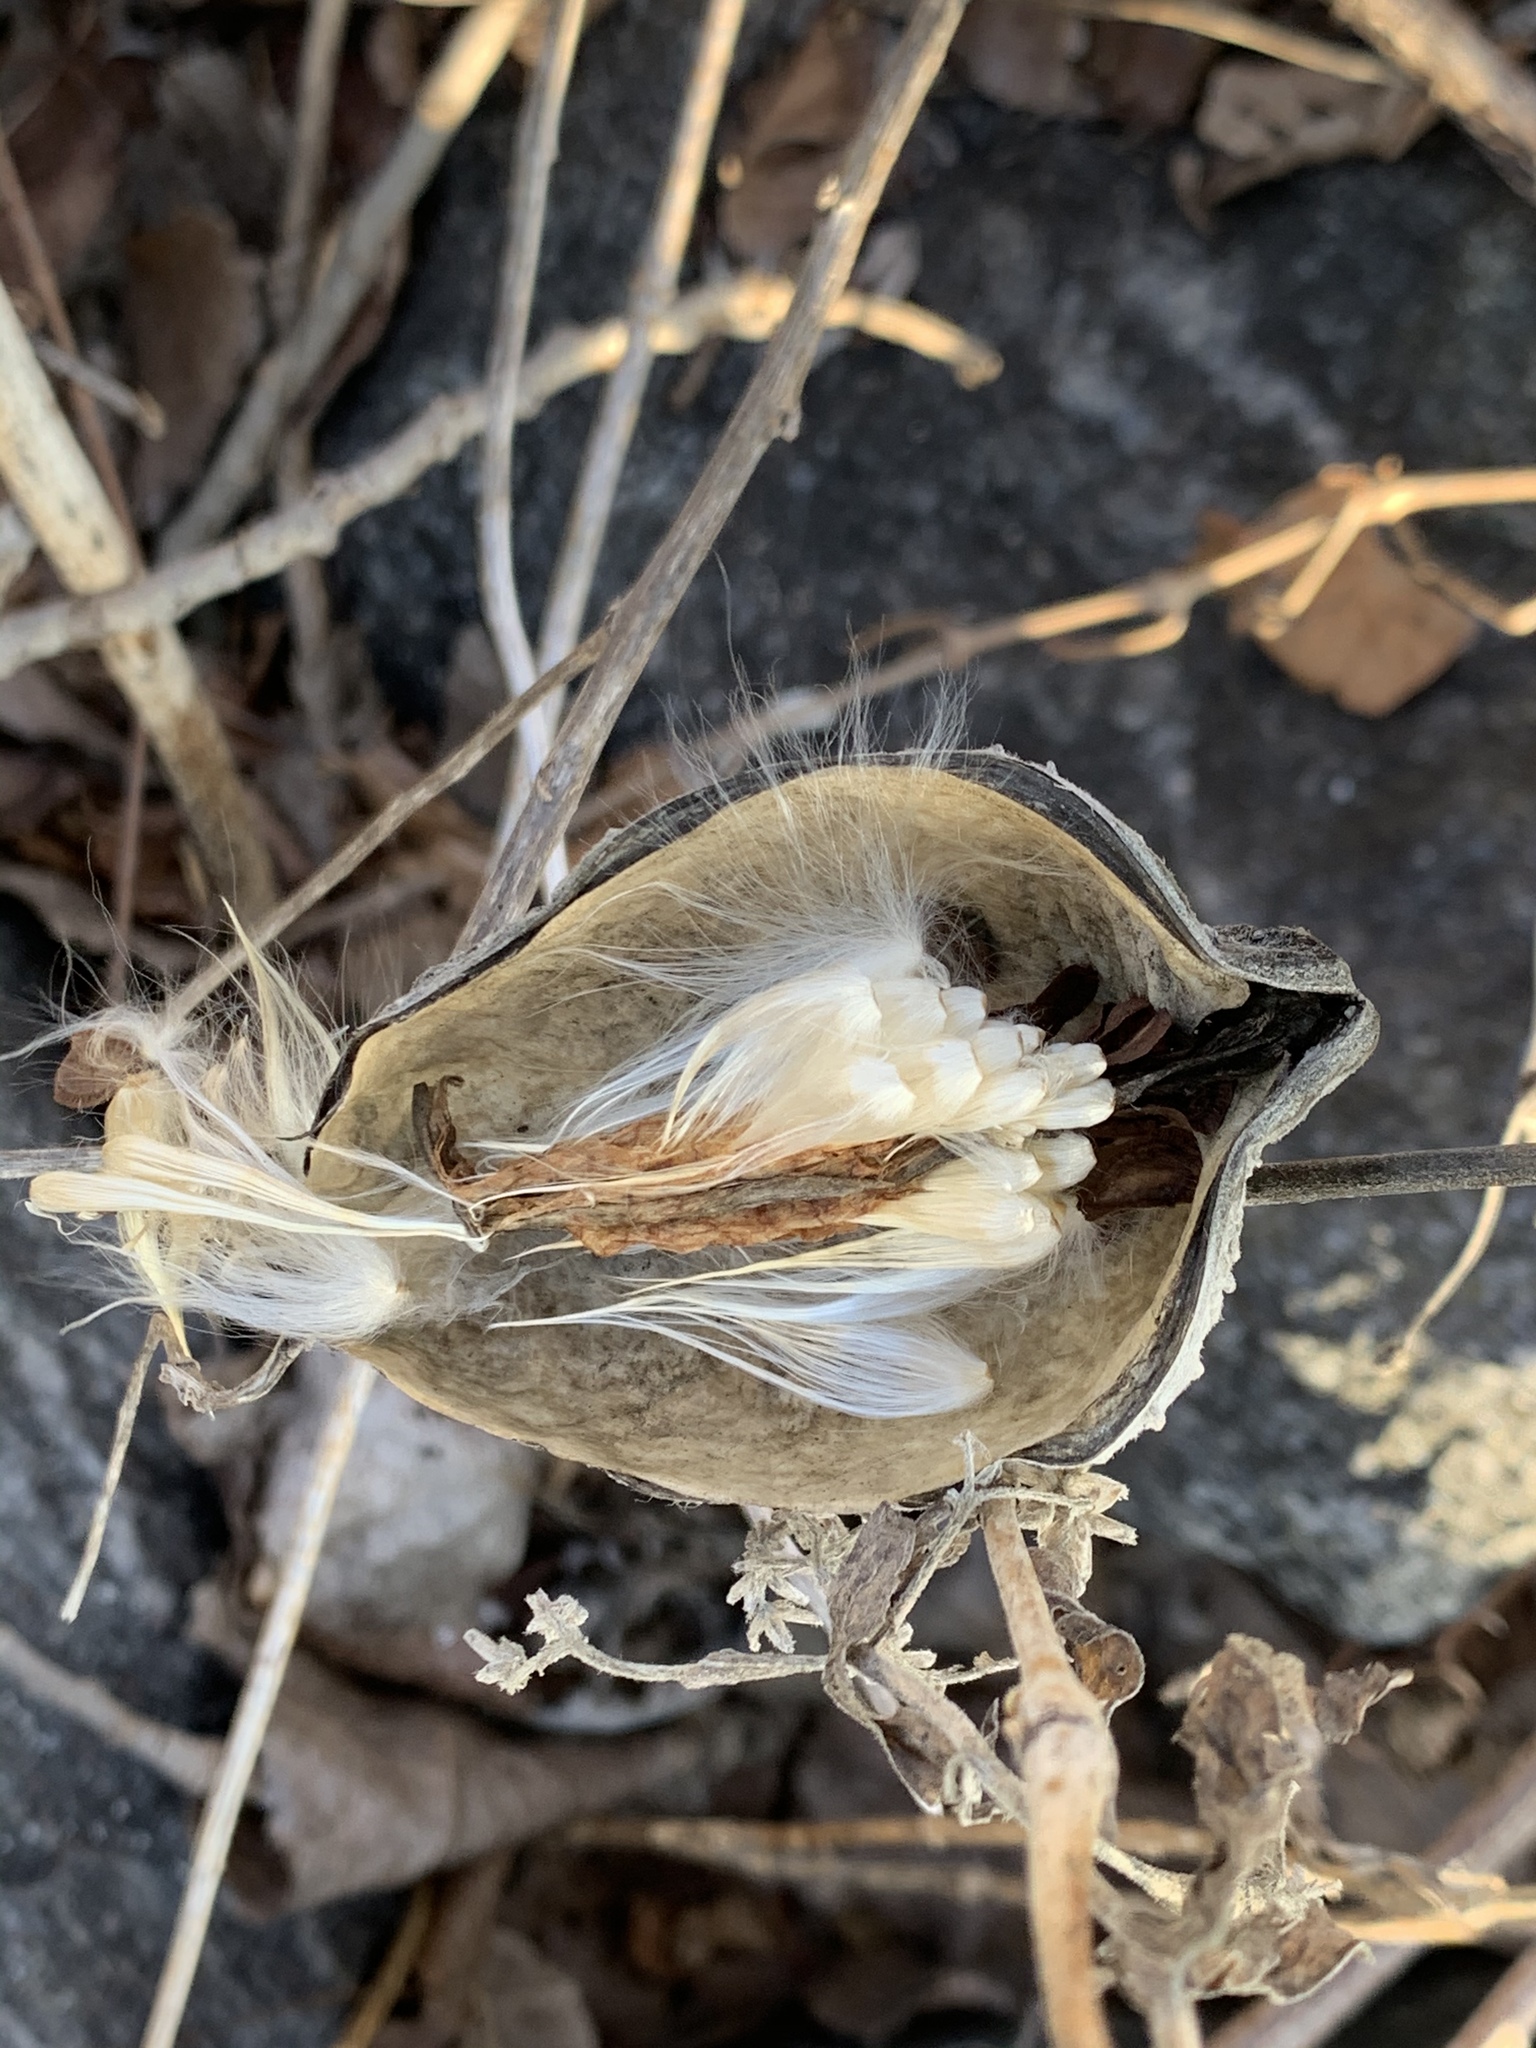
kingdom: Plantae
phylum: Tracheophyta
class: Magnoliopsida
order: Gentianales
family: Apocynaceae
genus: Asclepias
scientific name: Asclepias syriaca
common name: Common milkweed
